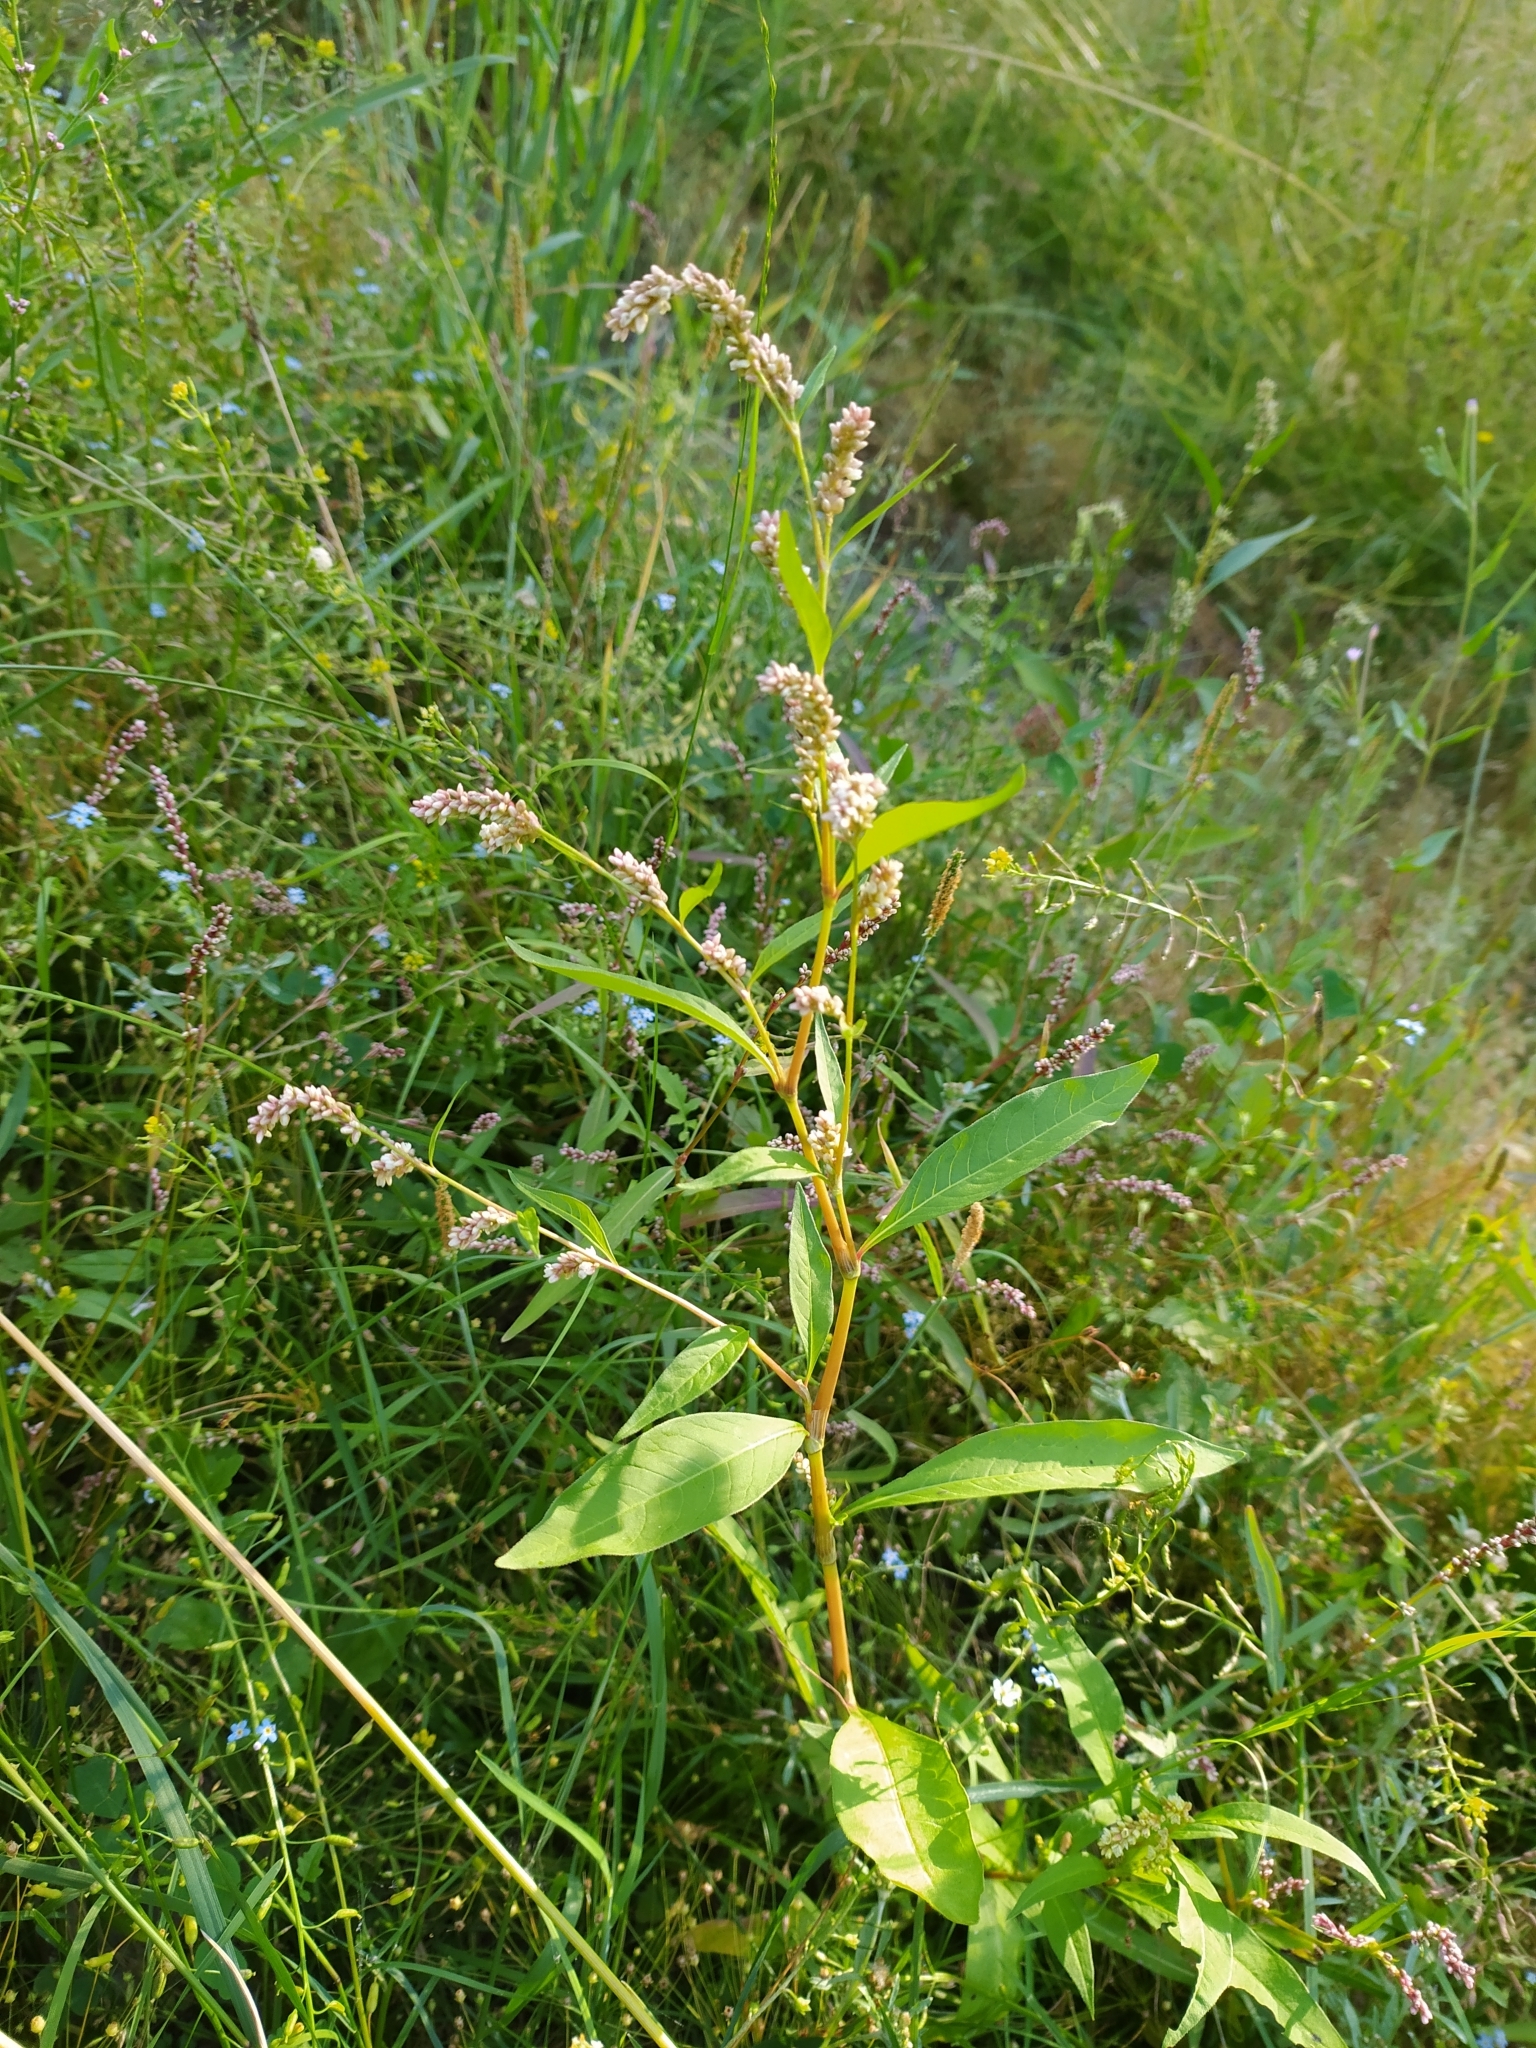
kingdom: Plantae
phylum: Tracheophyta
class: Magnoliopsida
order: Caryophyllales
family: Polygonaceae
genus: Persicaria
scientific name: Persicaria lapathifolia
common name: Curlytop knotweed
